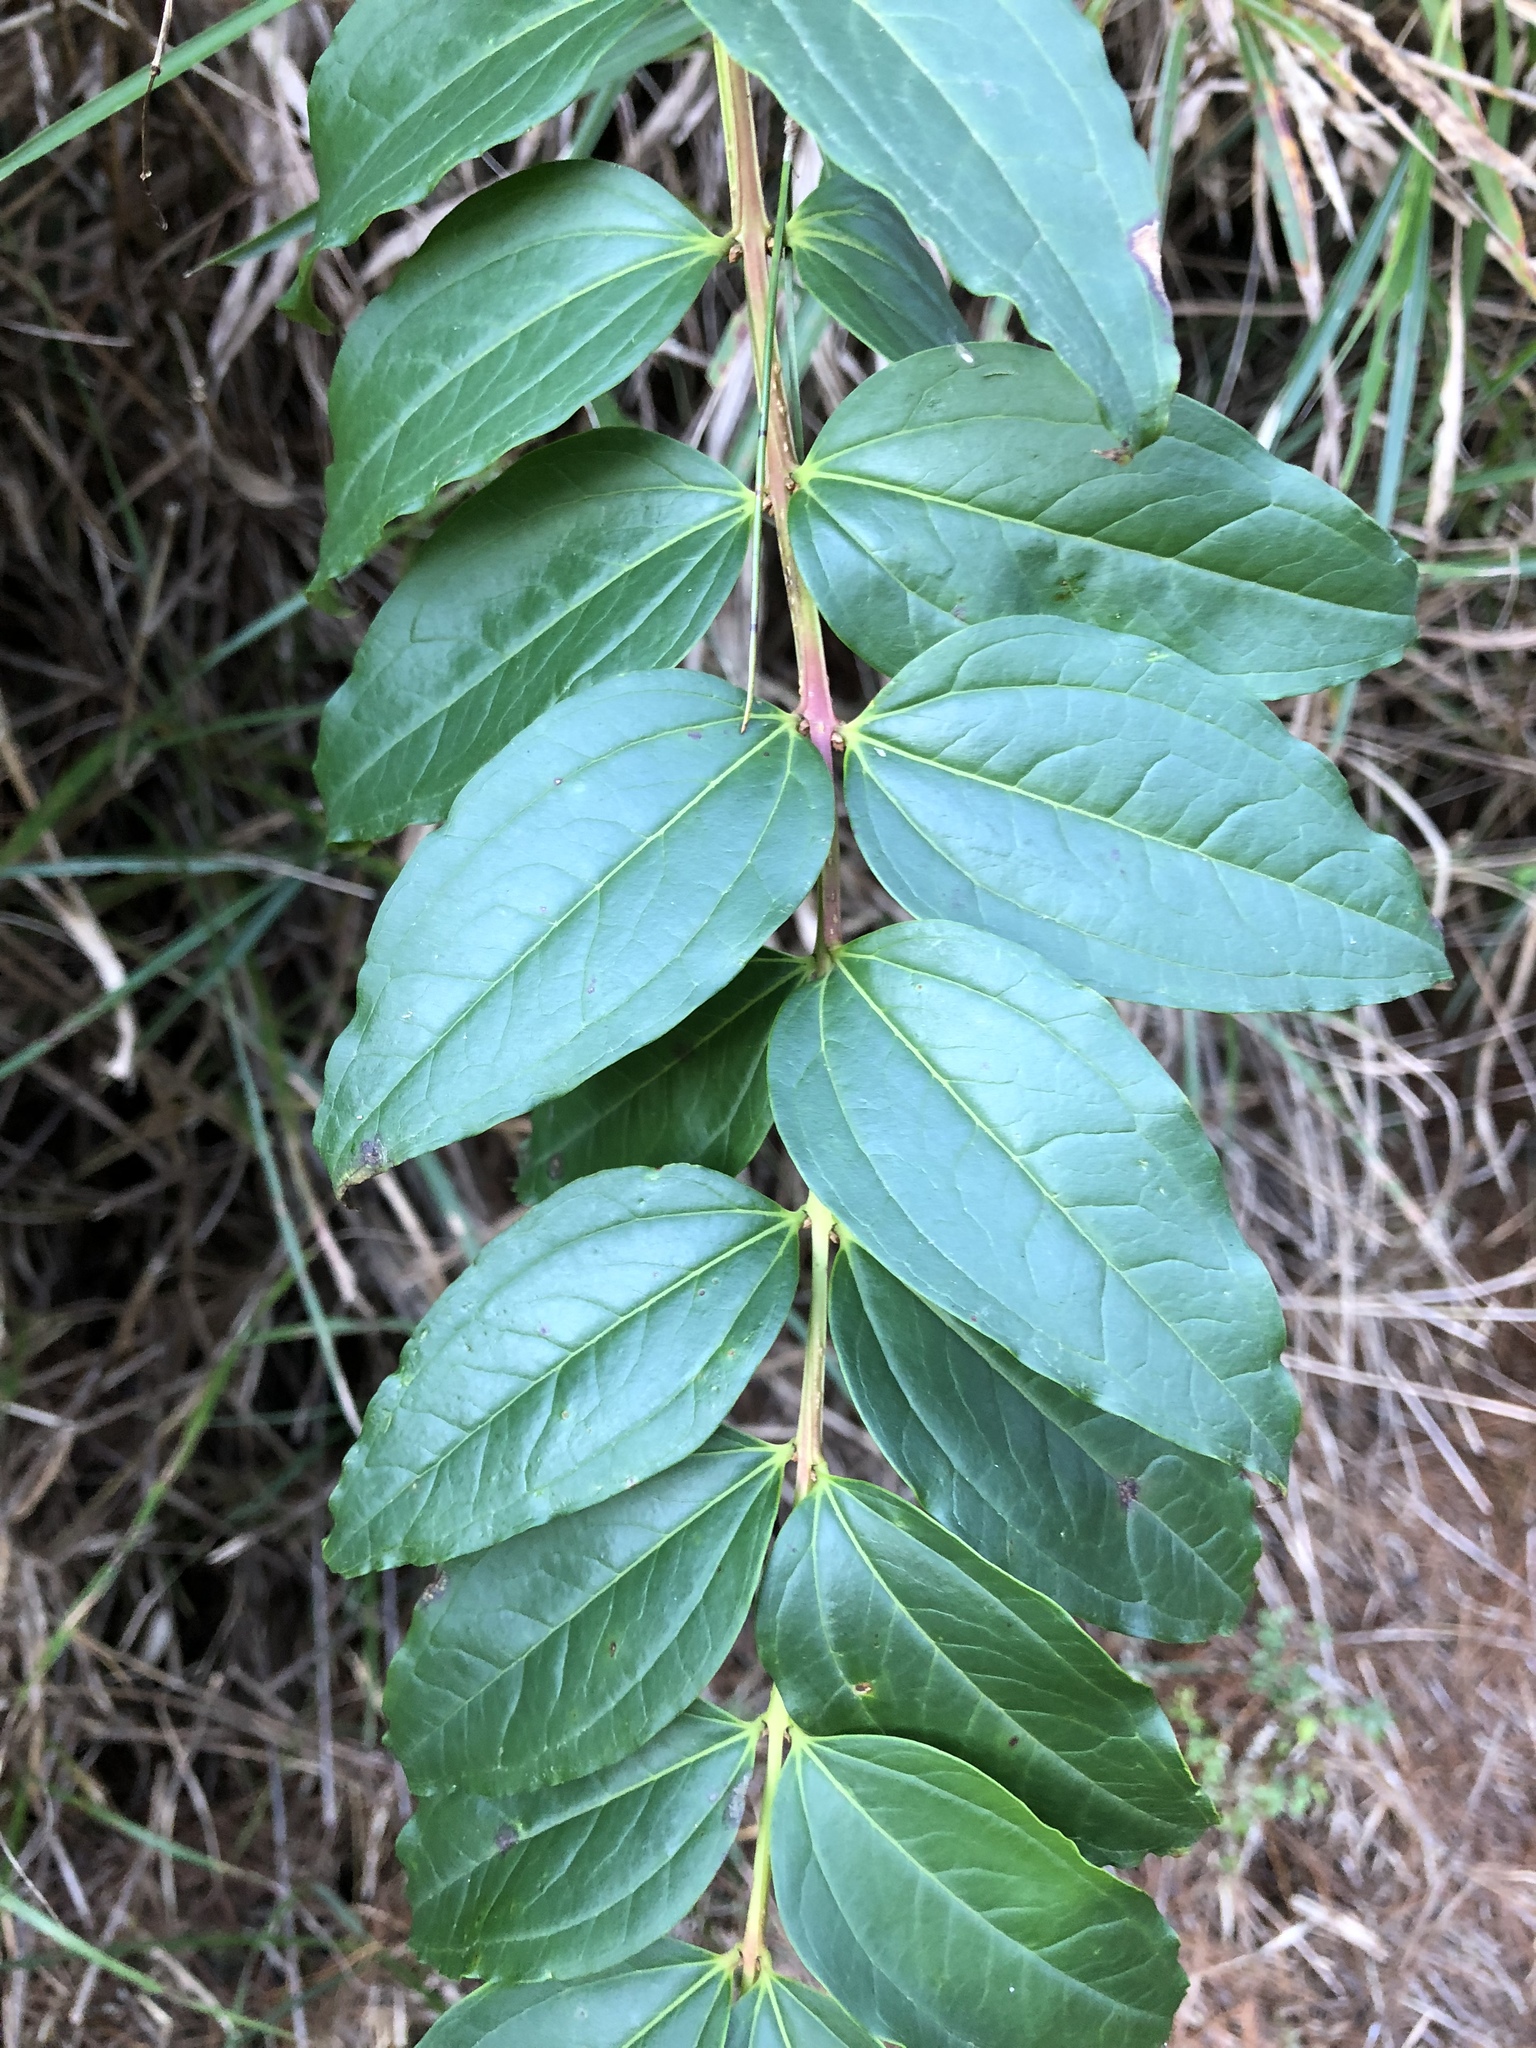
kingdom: Plantae
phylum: Tracheophyta
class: Magnoliopsida
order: Cucurbitales
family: Coriariaceae
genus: Coriaria
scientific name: Coriaria japonica
